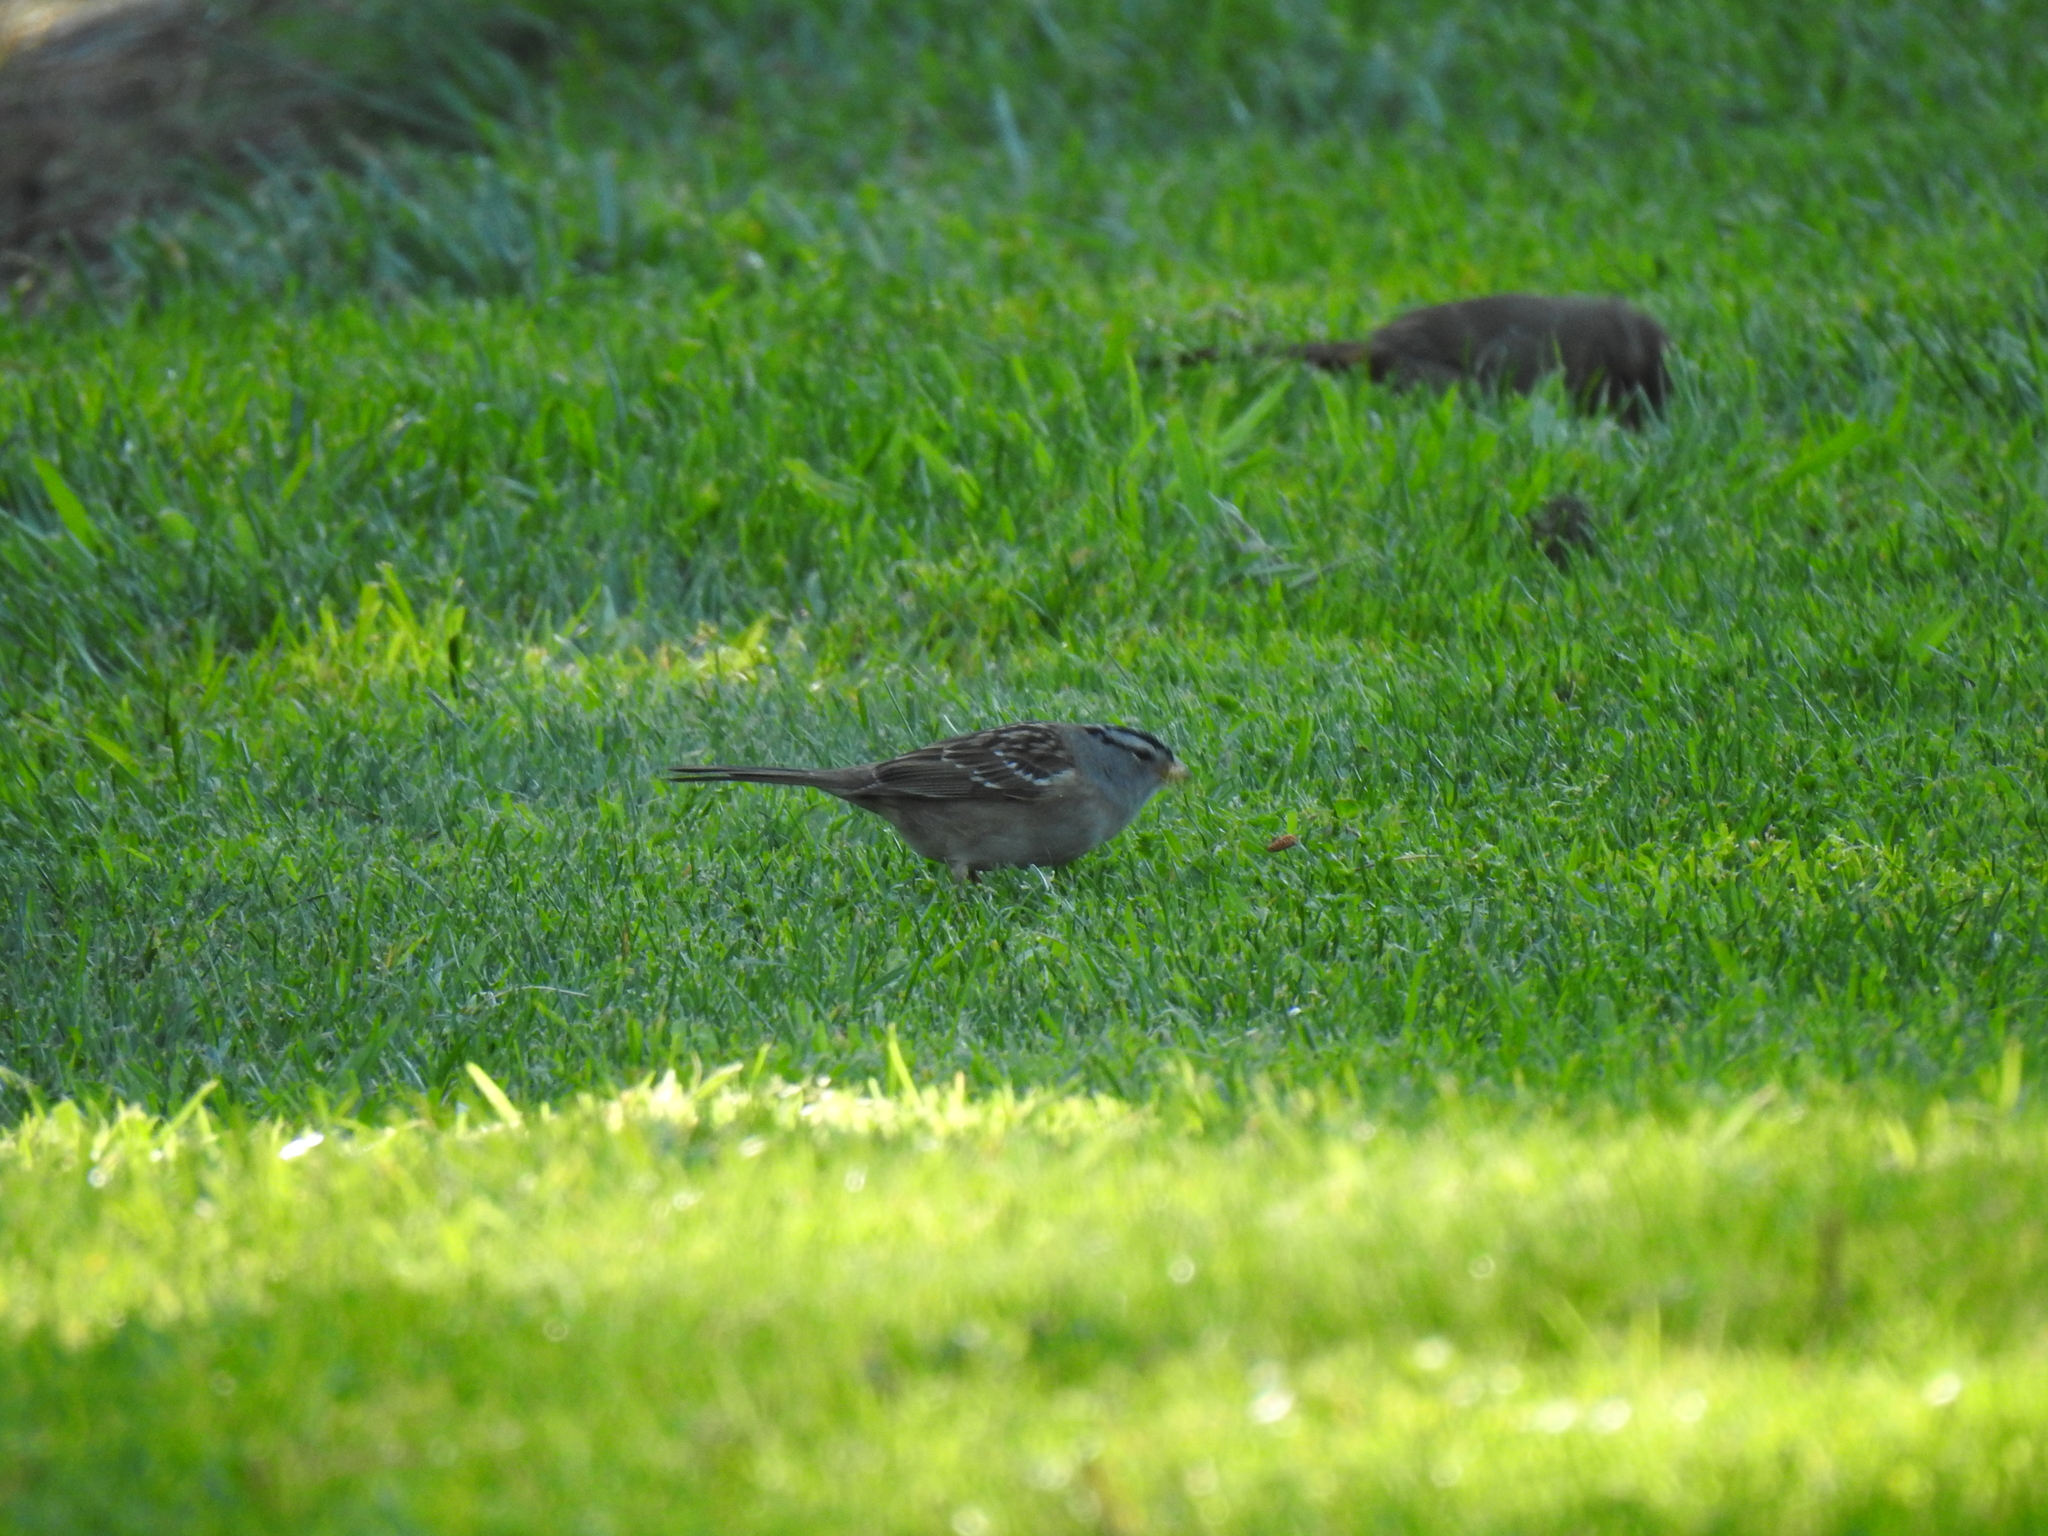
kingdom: Animalia
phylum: Chordata
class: Aves
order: Passeriformes
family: Passerellidae
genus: Zonotrichia
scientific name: Zonotrichia leucophrys
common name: White-crowned sparrow
